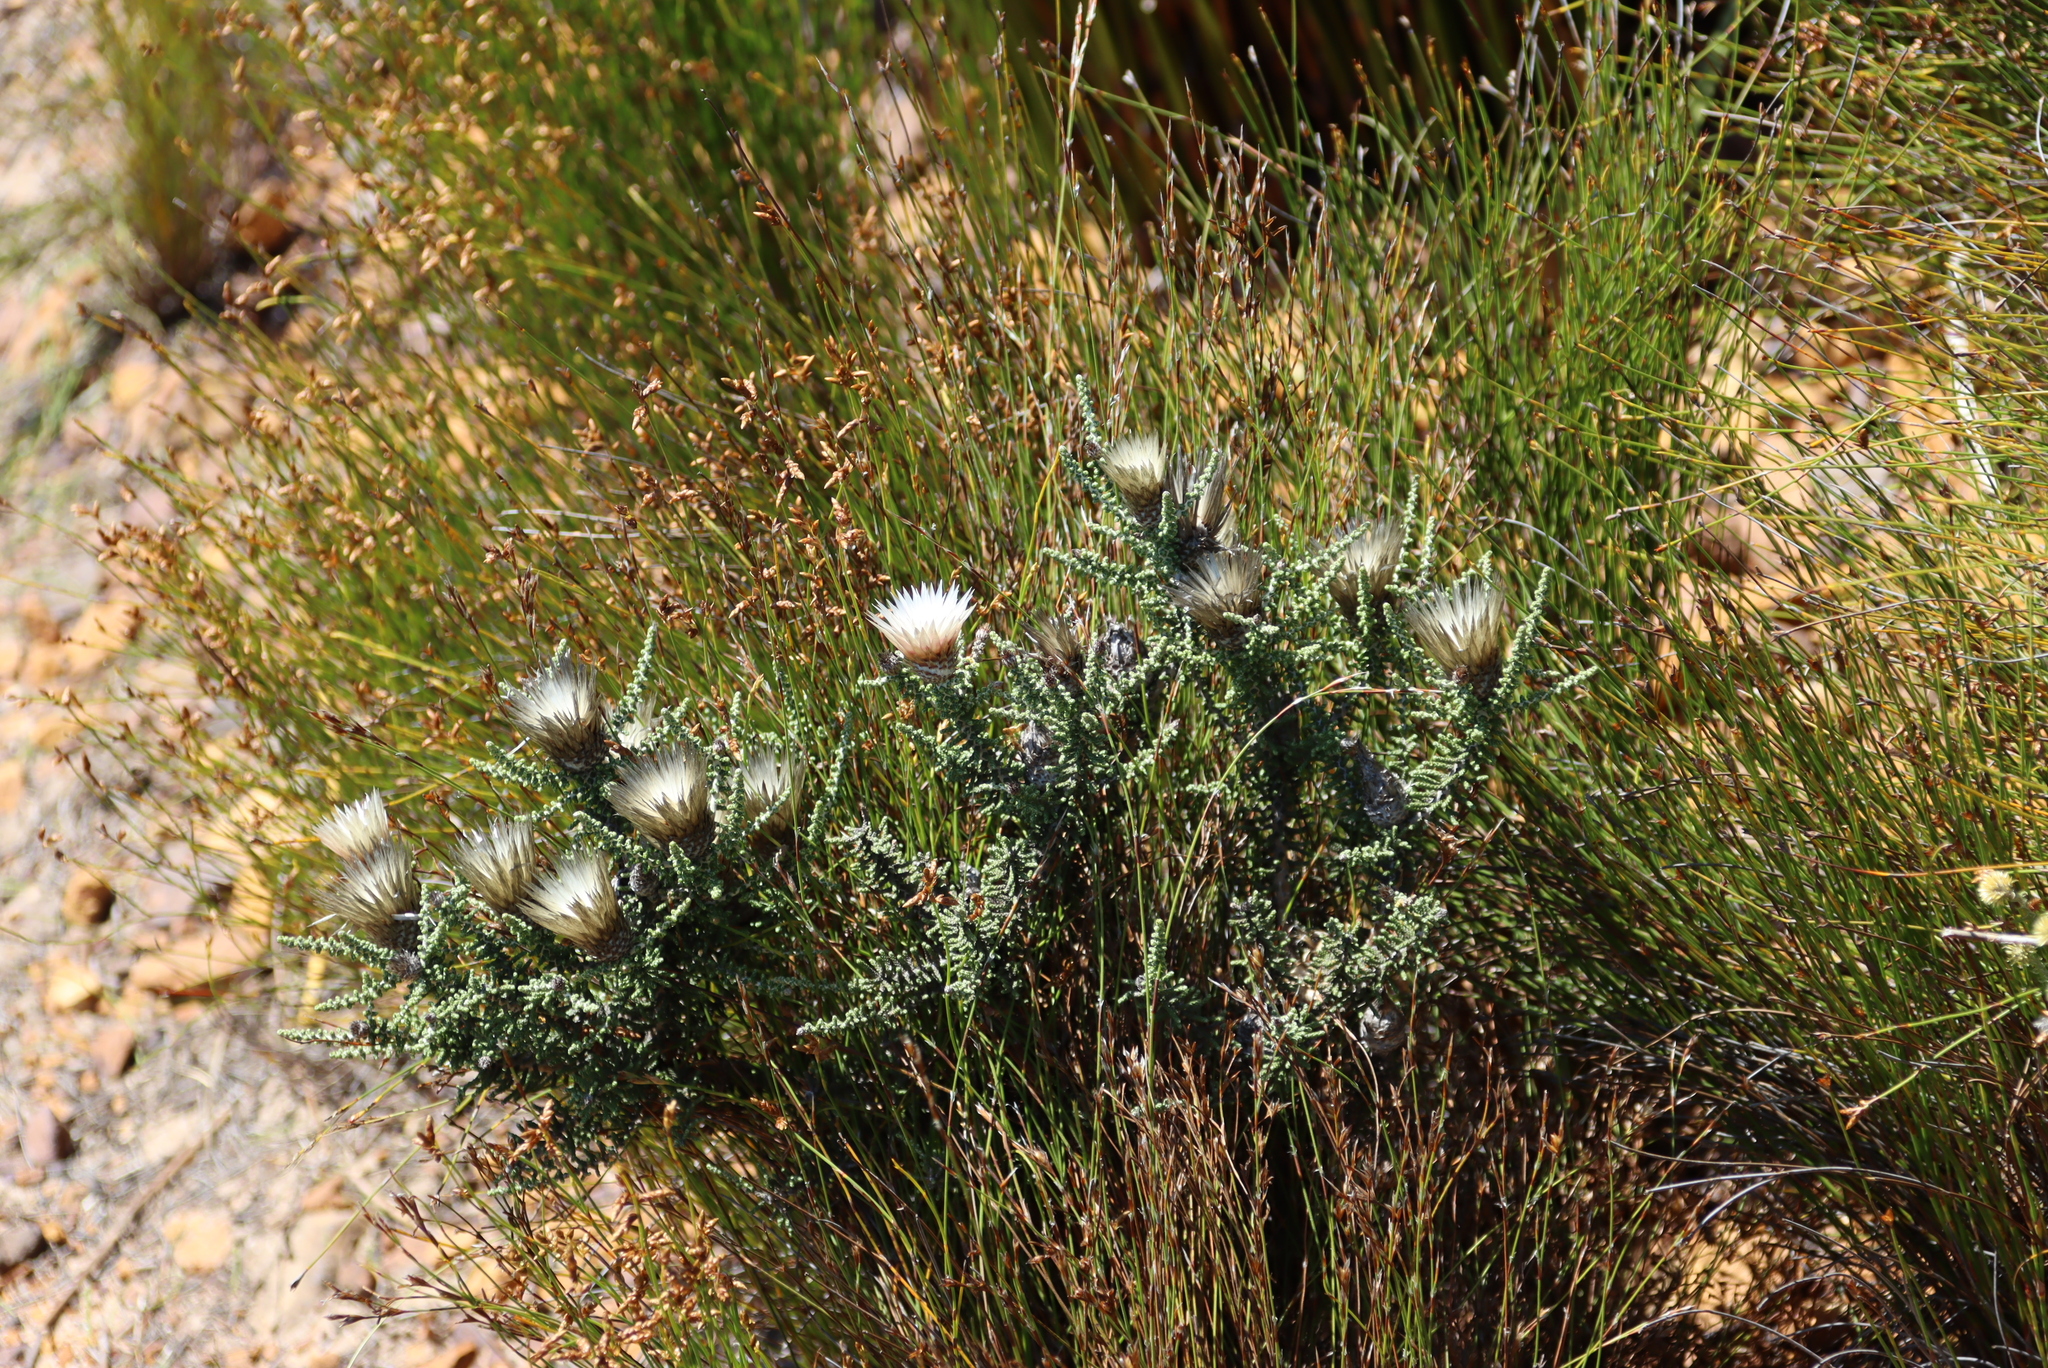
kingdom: Plantae
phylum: Tracheophyta
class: Magnoliopsida
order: Asterales
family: Asteraceae
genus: Phaenocoma
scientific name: Phaenocoma prolifera
